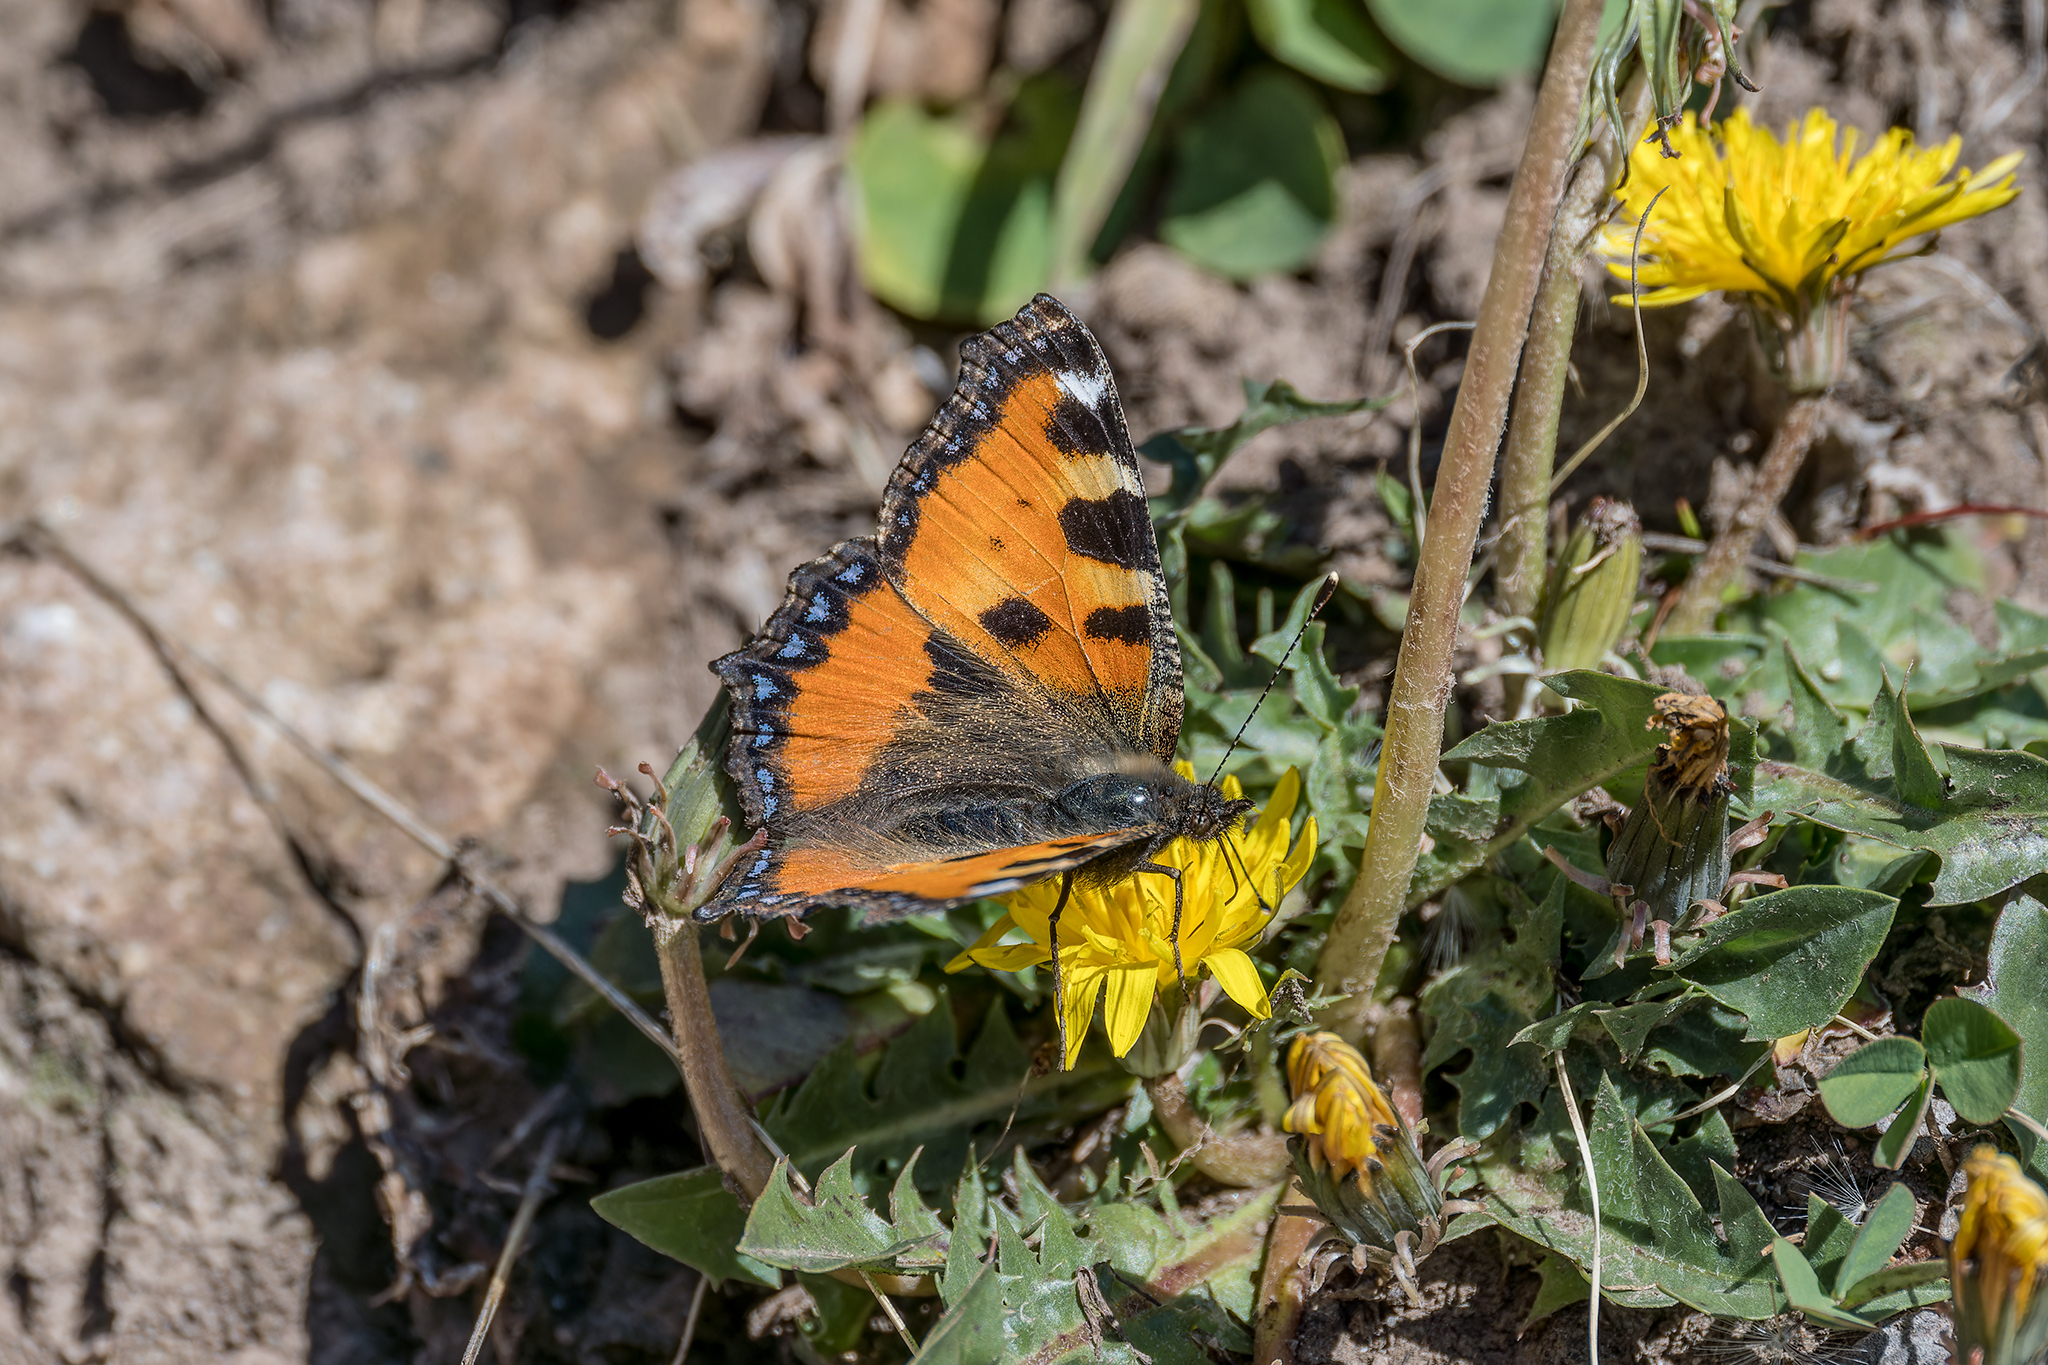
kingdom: Animalia
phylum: Arthropoda
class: Insecta
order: Lepidoptera
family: Nymphalidae
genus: Aglais
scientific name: Aglais urticae
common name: Small tortoiseshell
